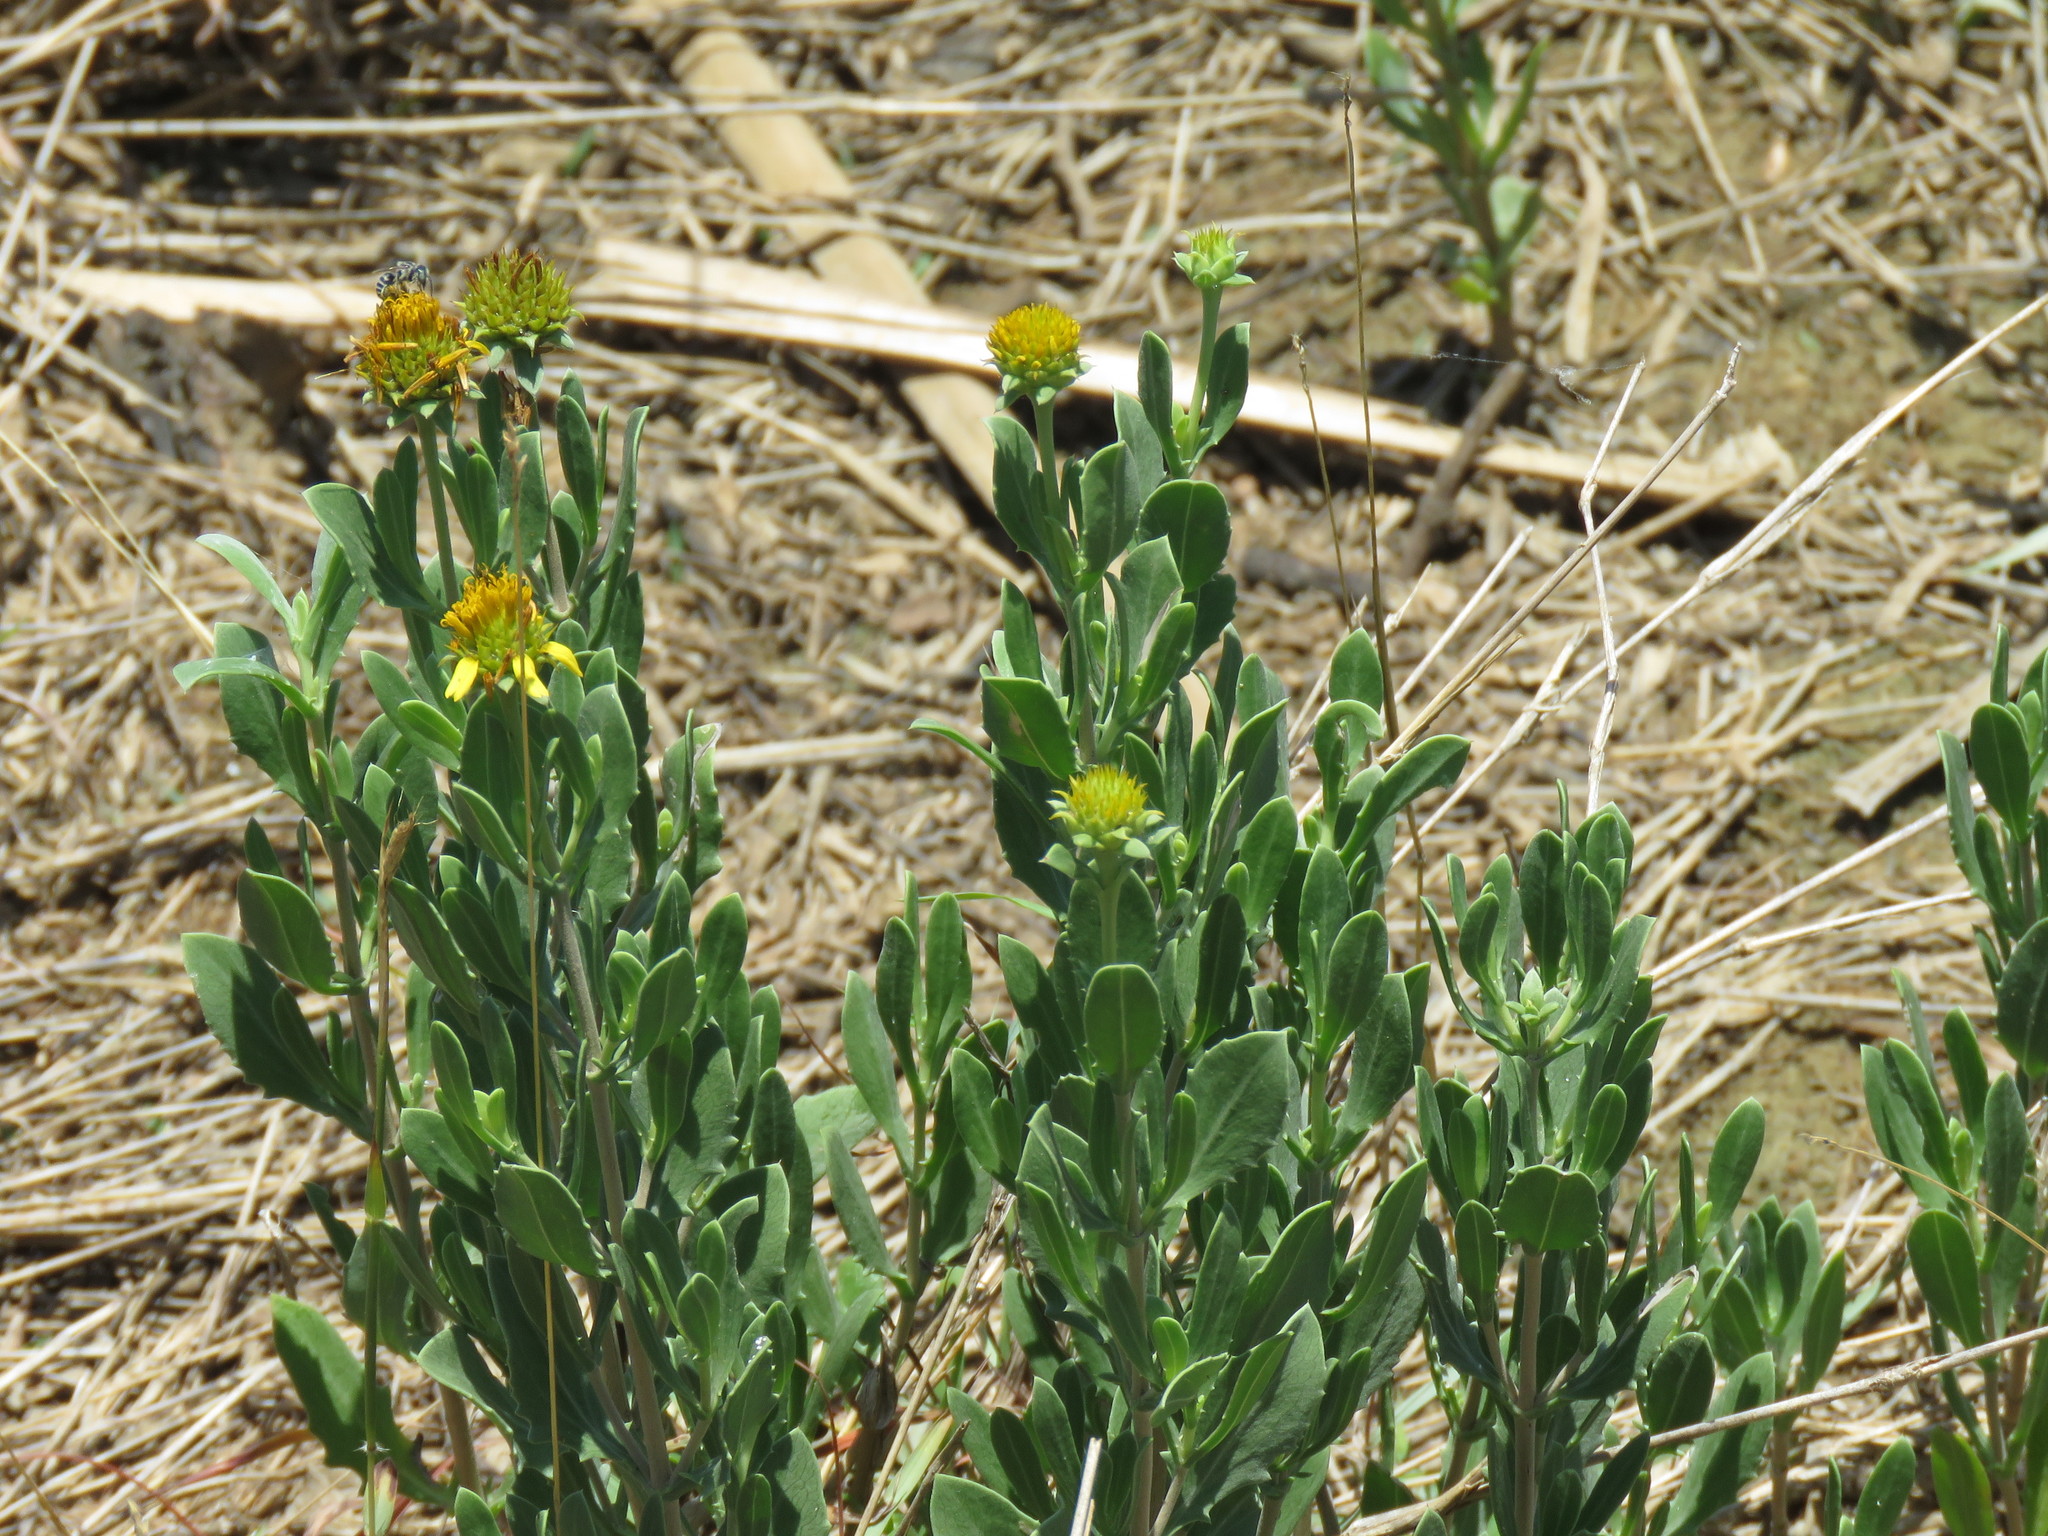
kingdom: Plantae
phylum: Tracheophyta
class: Magnoliopsida
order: Asterales
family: Asteraceae
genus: Borrichia
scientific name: Borrichia frutescens
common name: Sea oxeye
